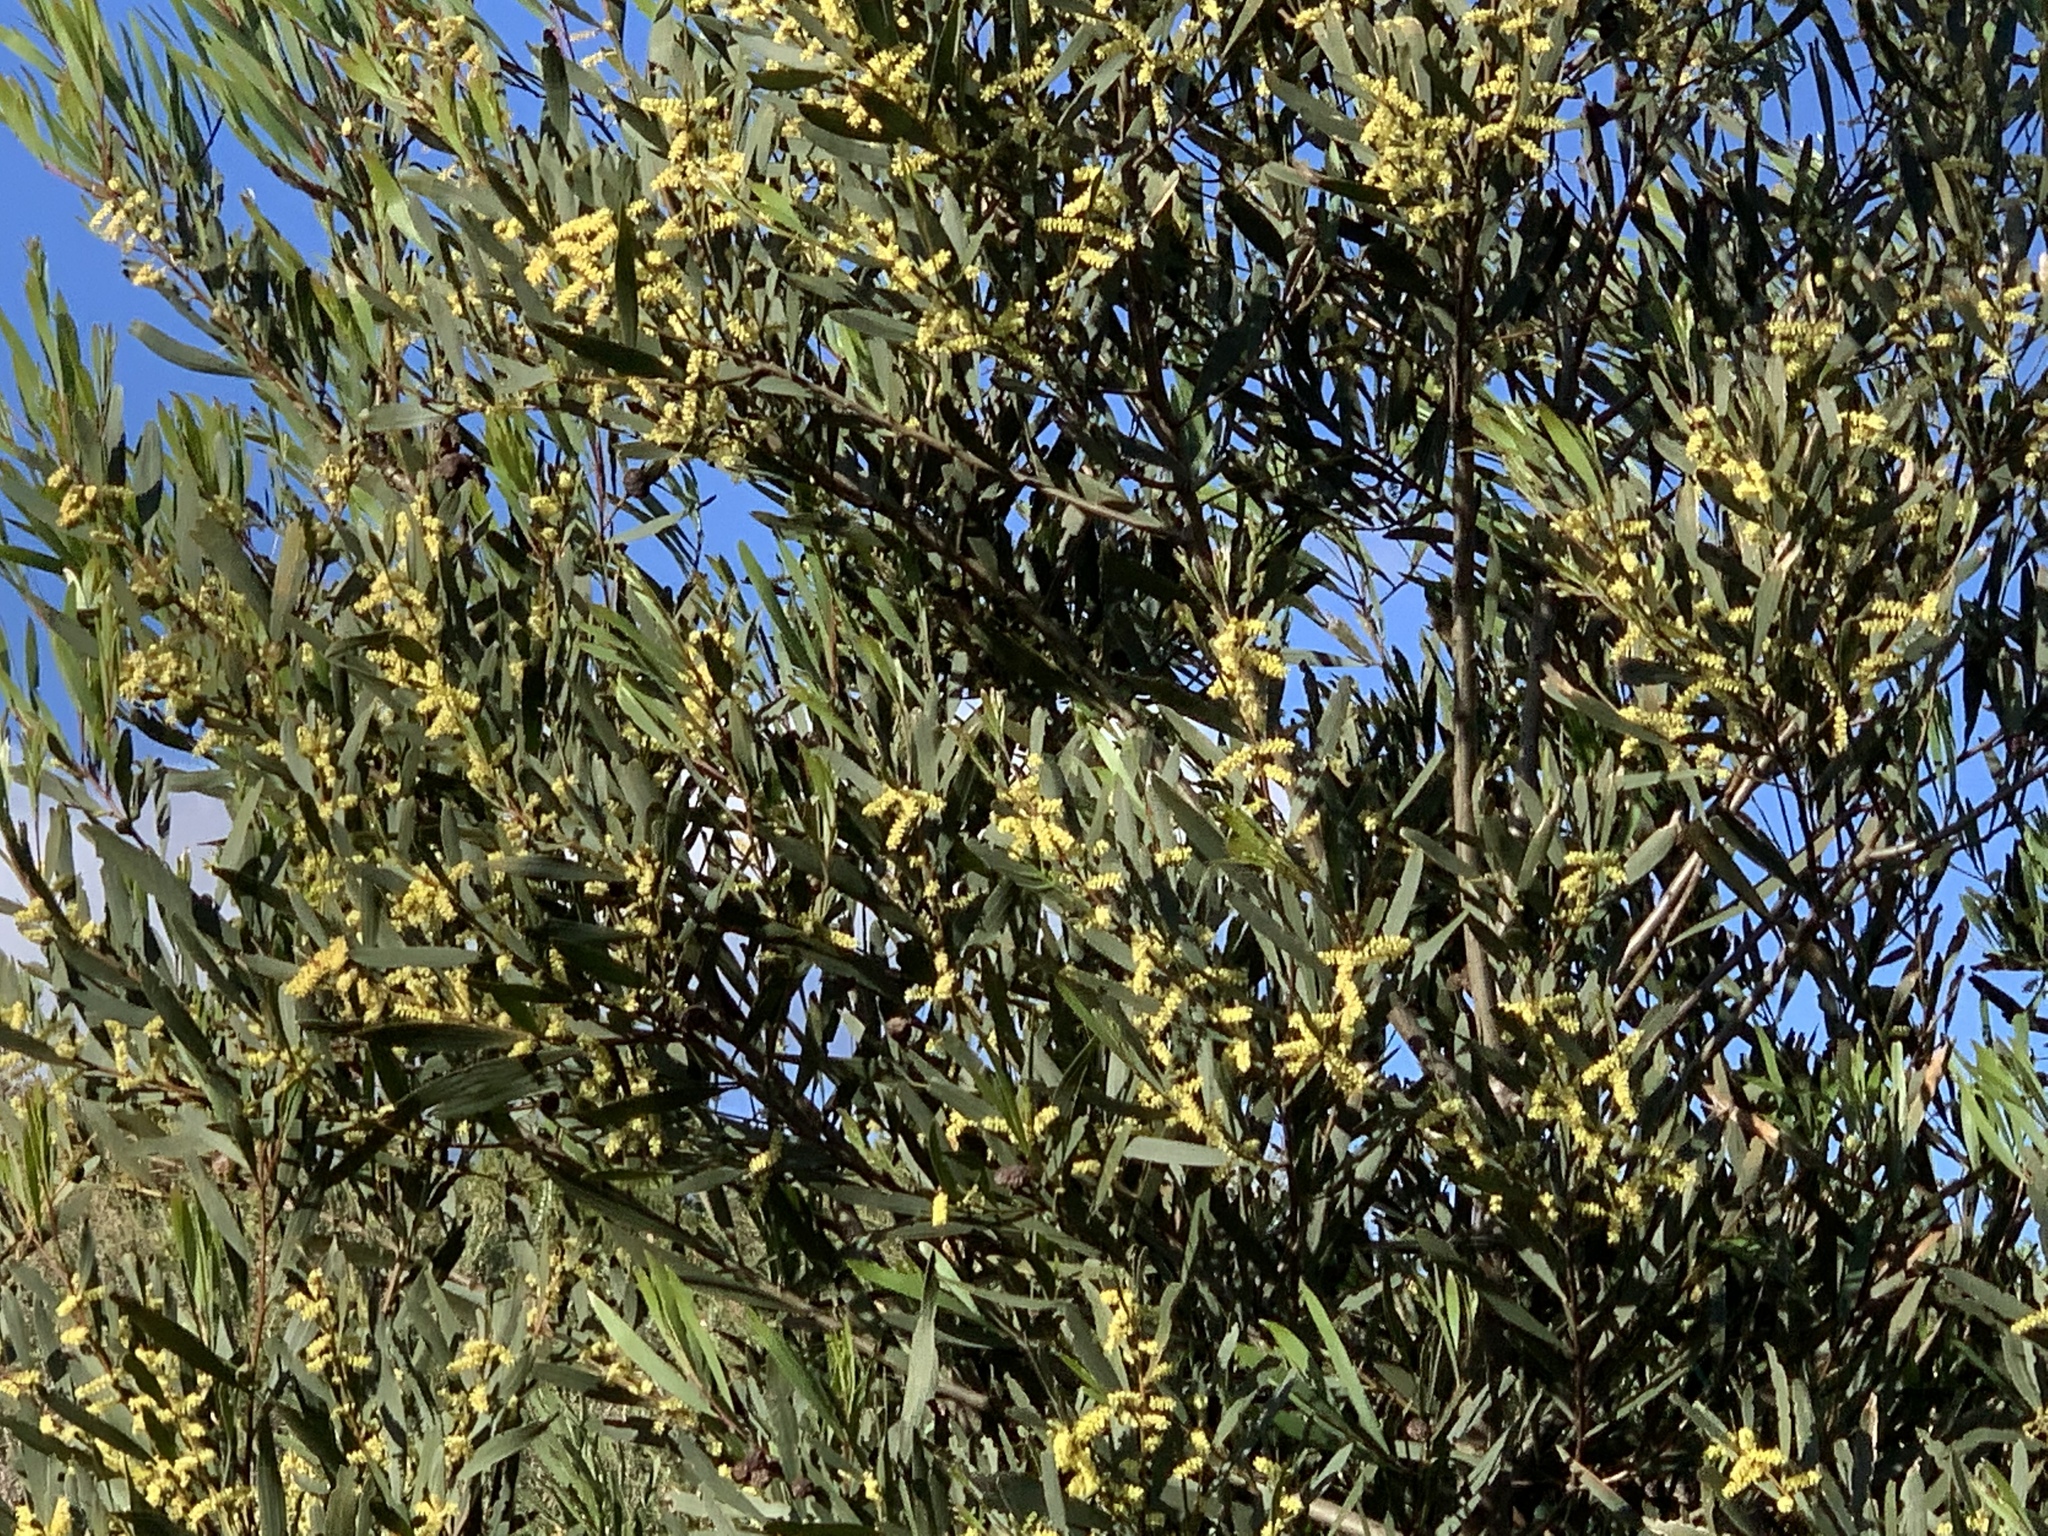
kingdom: Plantae
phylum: Tracheophyta
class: Magnoliopsida
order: Fabales
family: Fabaceae
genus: Acacia
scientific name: Acacia longifolia
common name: Sydney golden wattle
